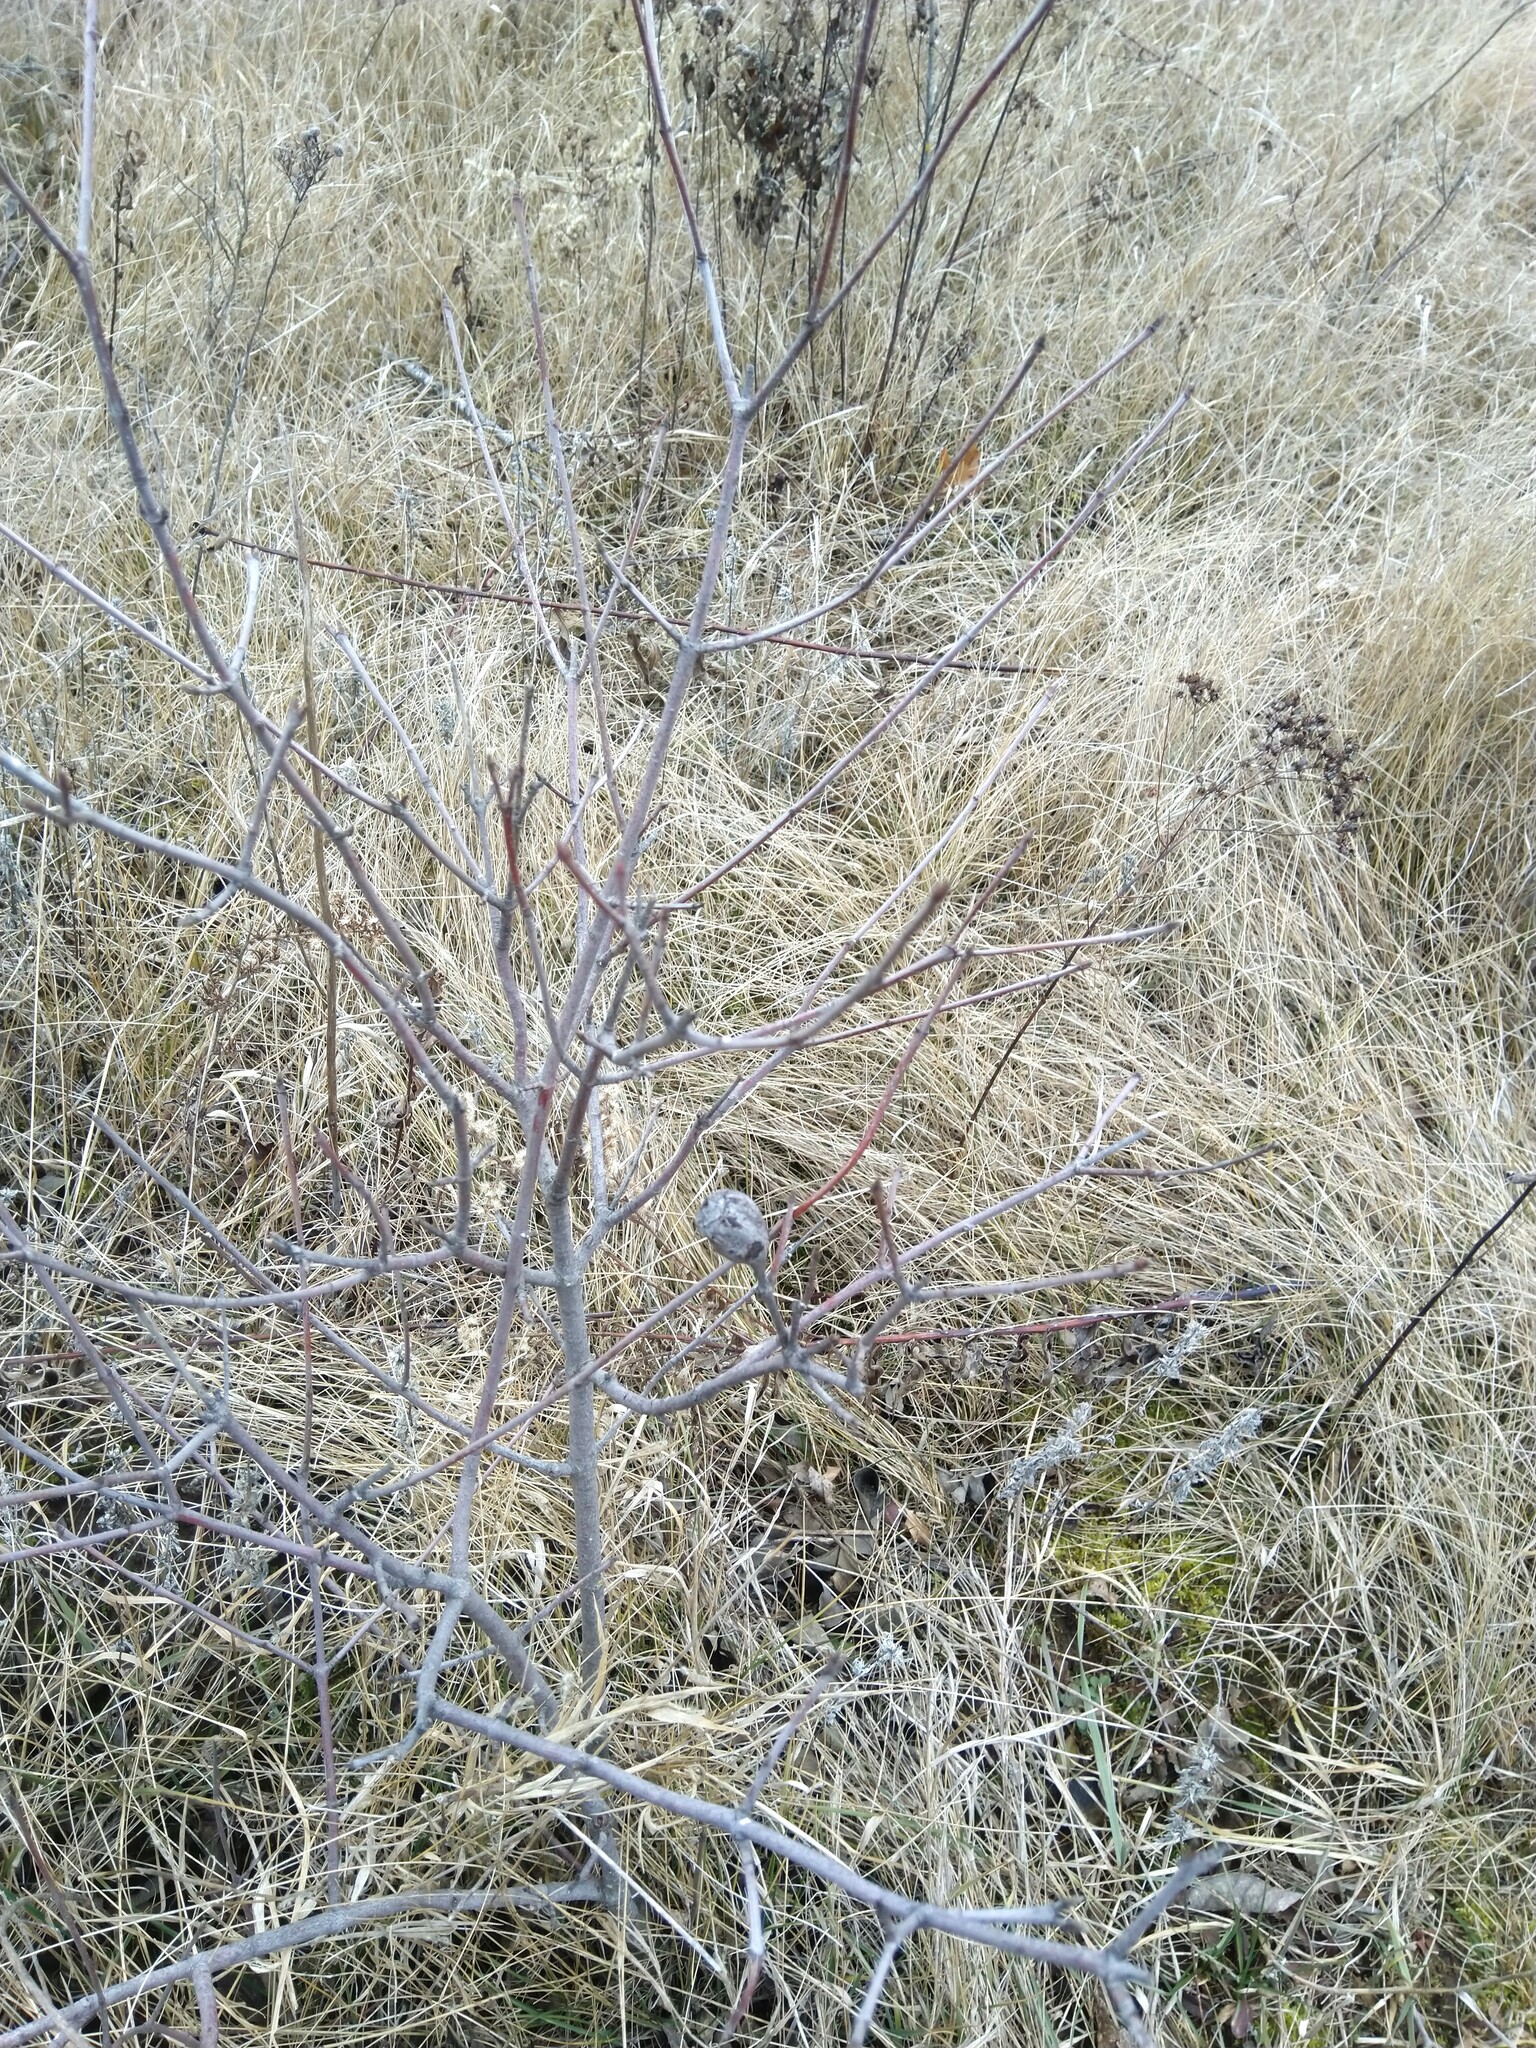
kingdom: Animalia
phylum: Arthropoda
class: Insecta
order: Diptera
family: Cecidomyiidae
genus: Resseliella
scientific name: Resseliella clavula
